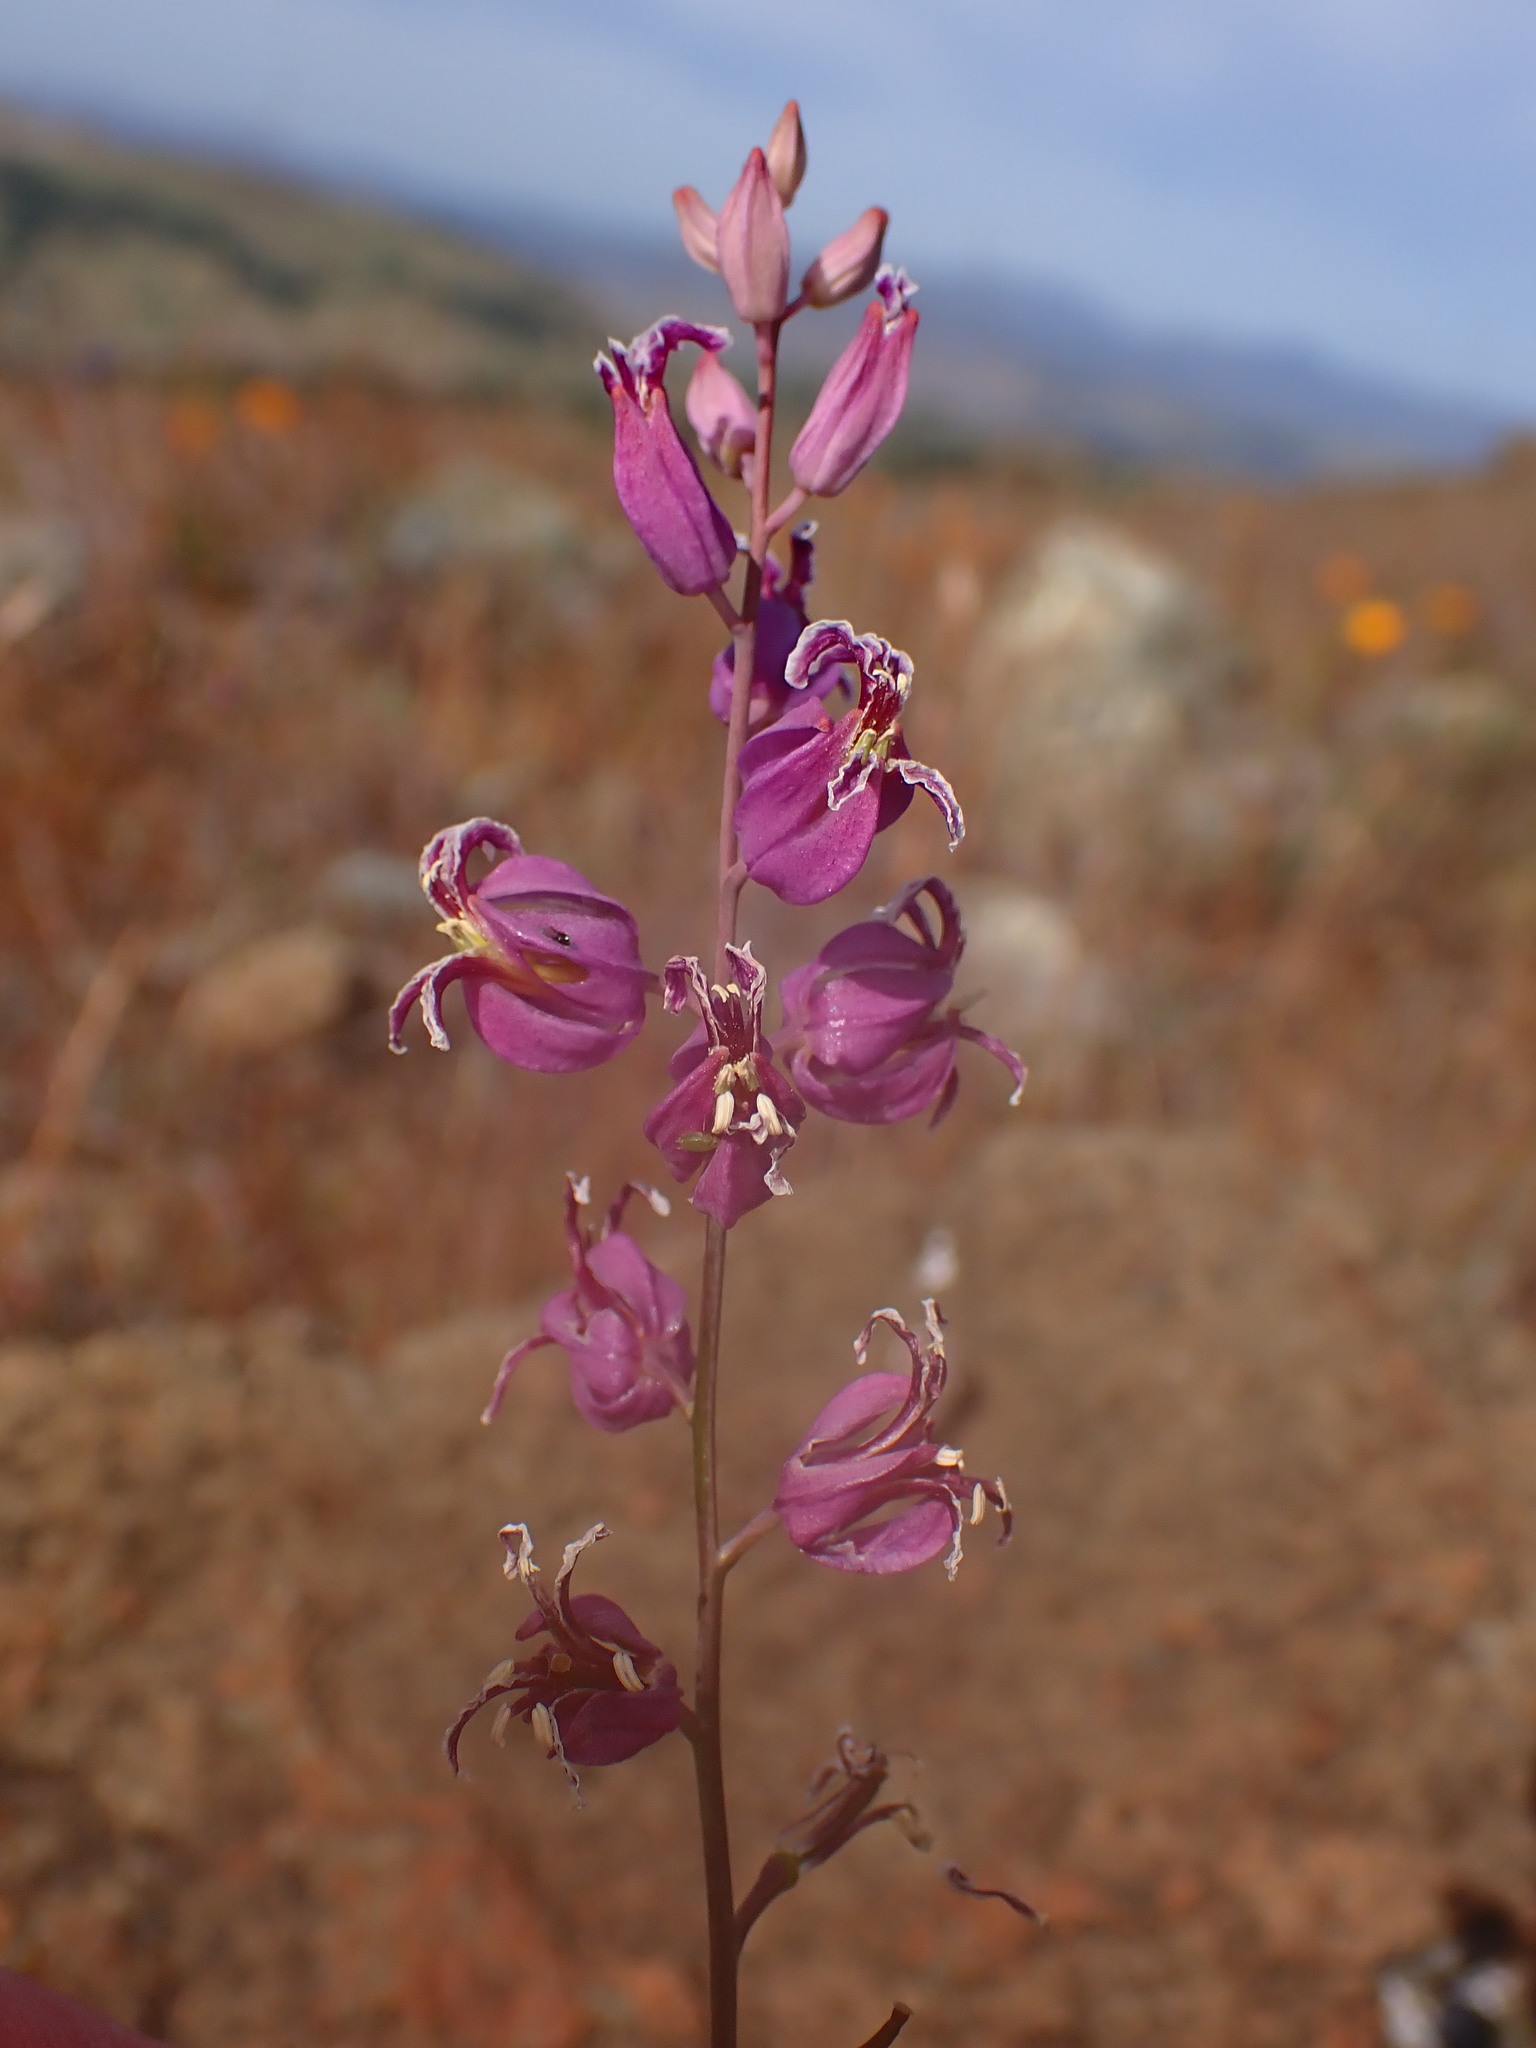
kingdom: Plantae
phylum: Tracheophyta
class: Magnoliopsida
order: Brassicales
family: Brassicaceae
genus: Streptanthus
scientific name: Streptanthus glandulosus
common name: Jewel-flower
